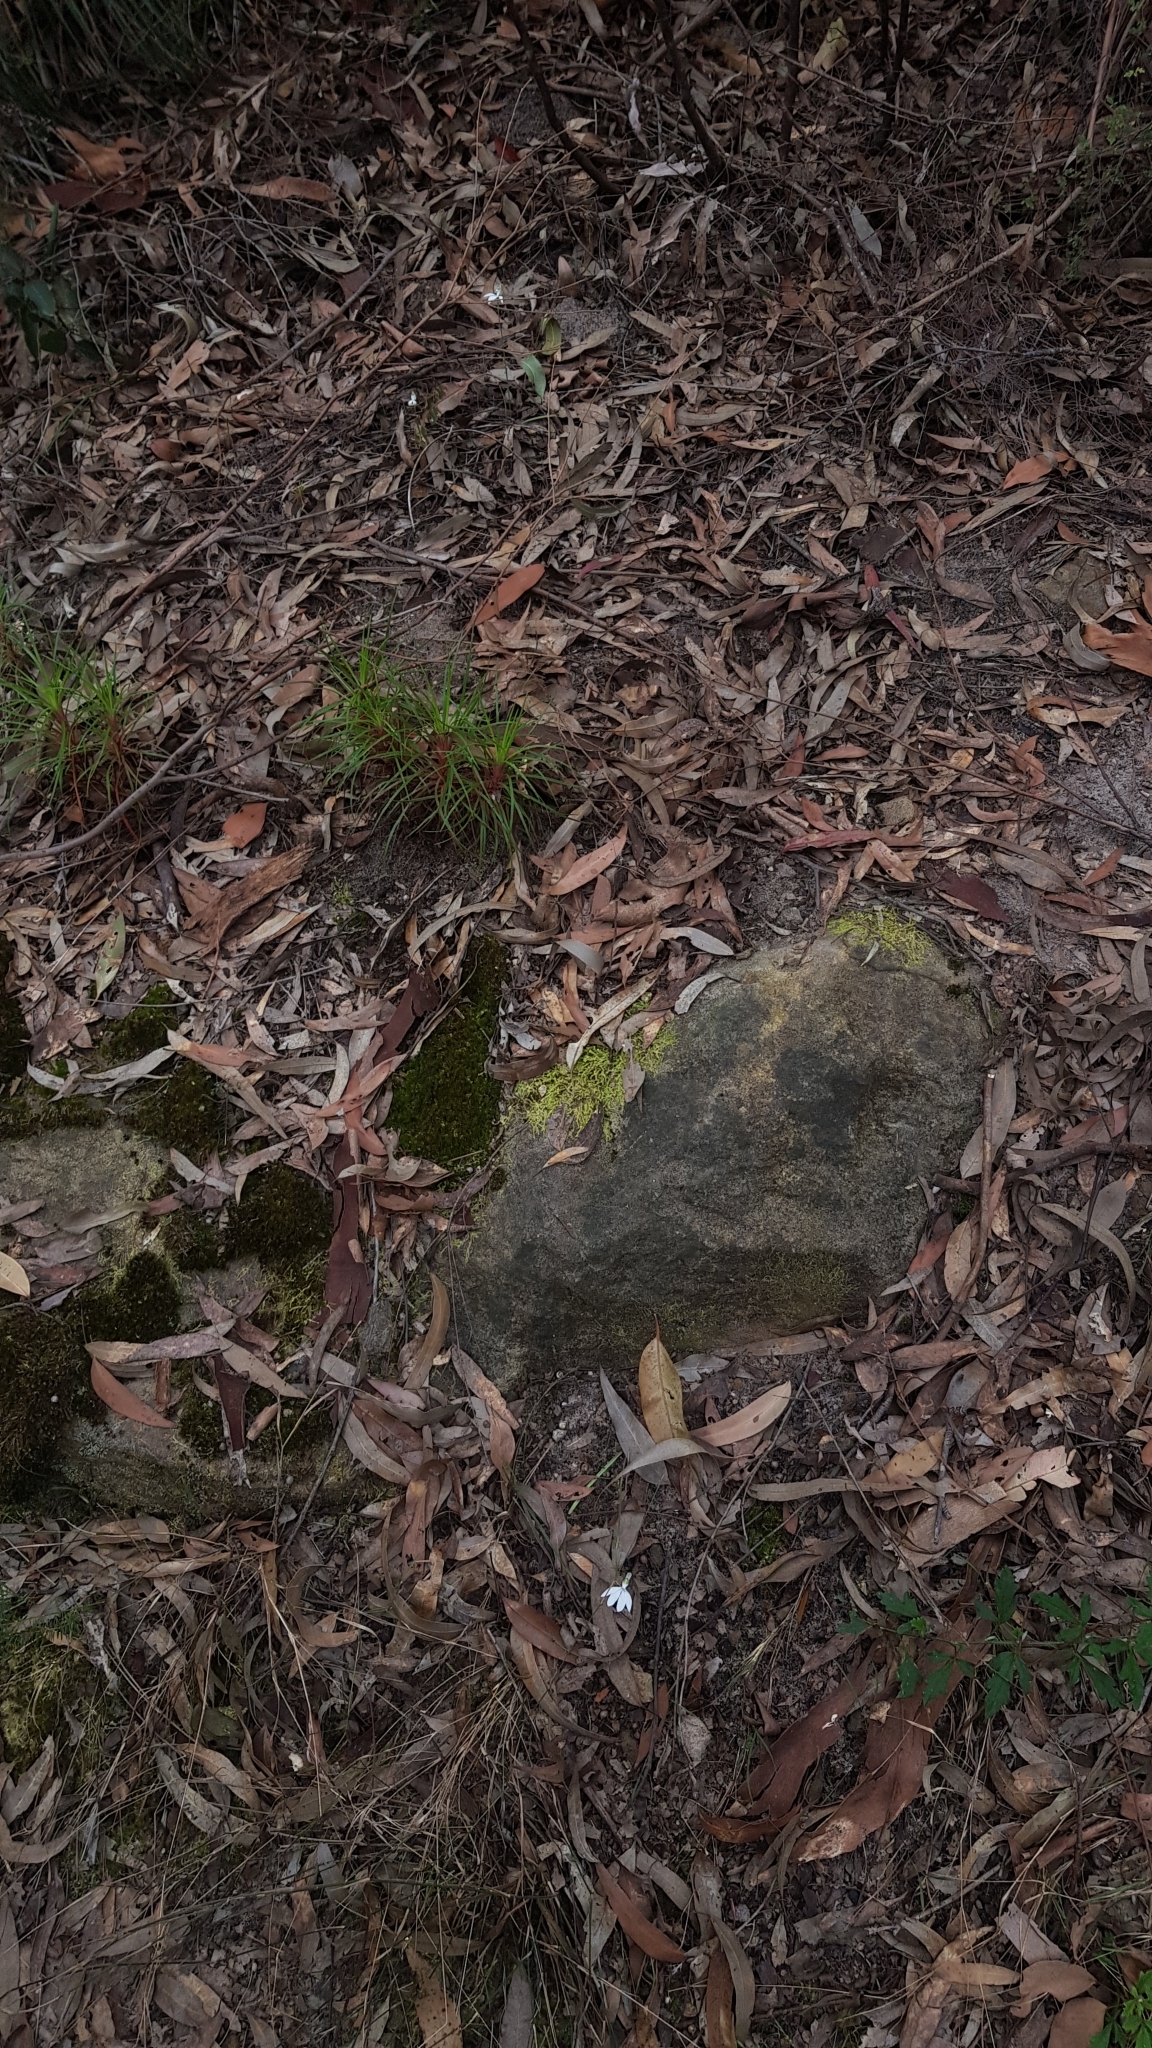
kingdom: Plantae
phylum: Tracheophyta
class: Liliopsida
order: Asparagales
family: Orchidaceae
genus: Caladenia
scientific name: Caladenia catenata
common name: White caladenia
